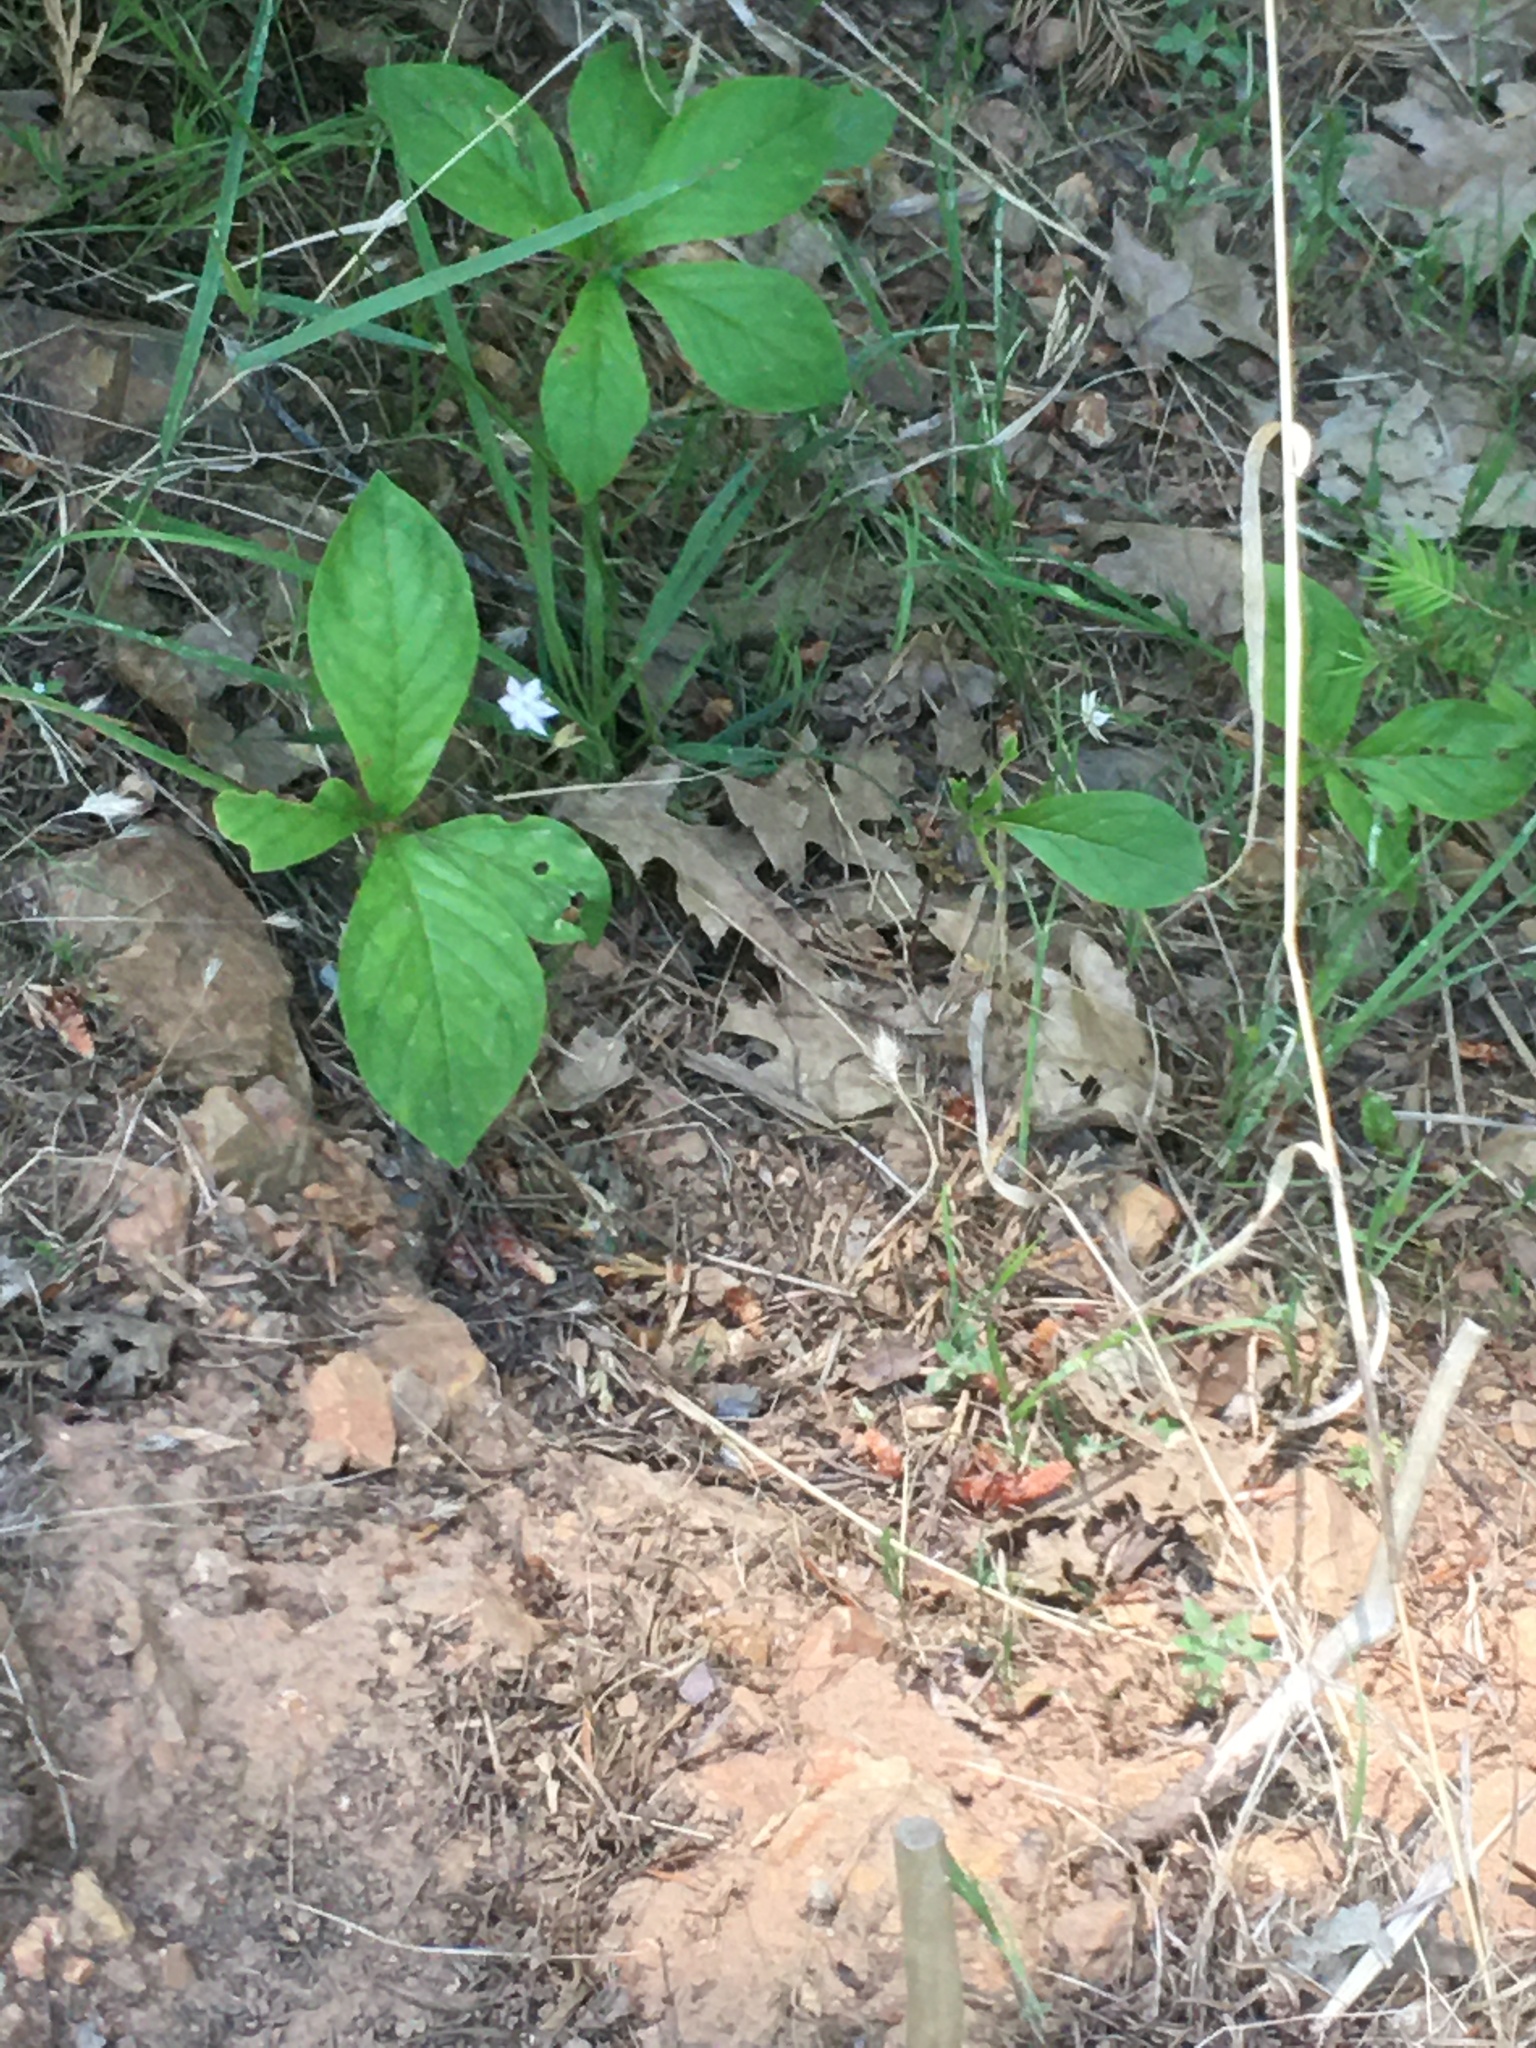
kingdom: Plantae
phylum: Tracheophyta
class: Magnoliopsida
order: Ericales
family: Primulaceae
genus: Lysimachia
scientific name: Lysimachia latifolia
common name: Pacific starflower
